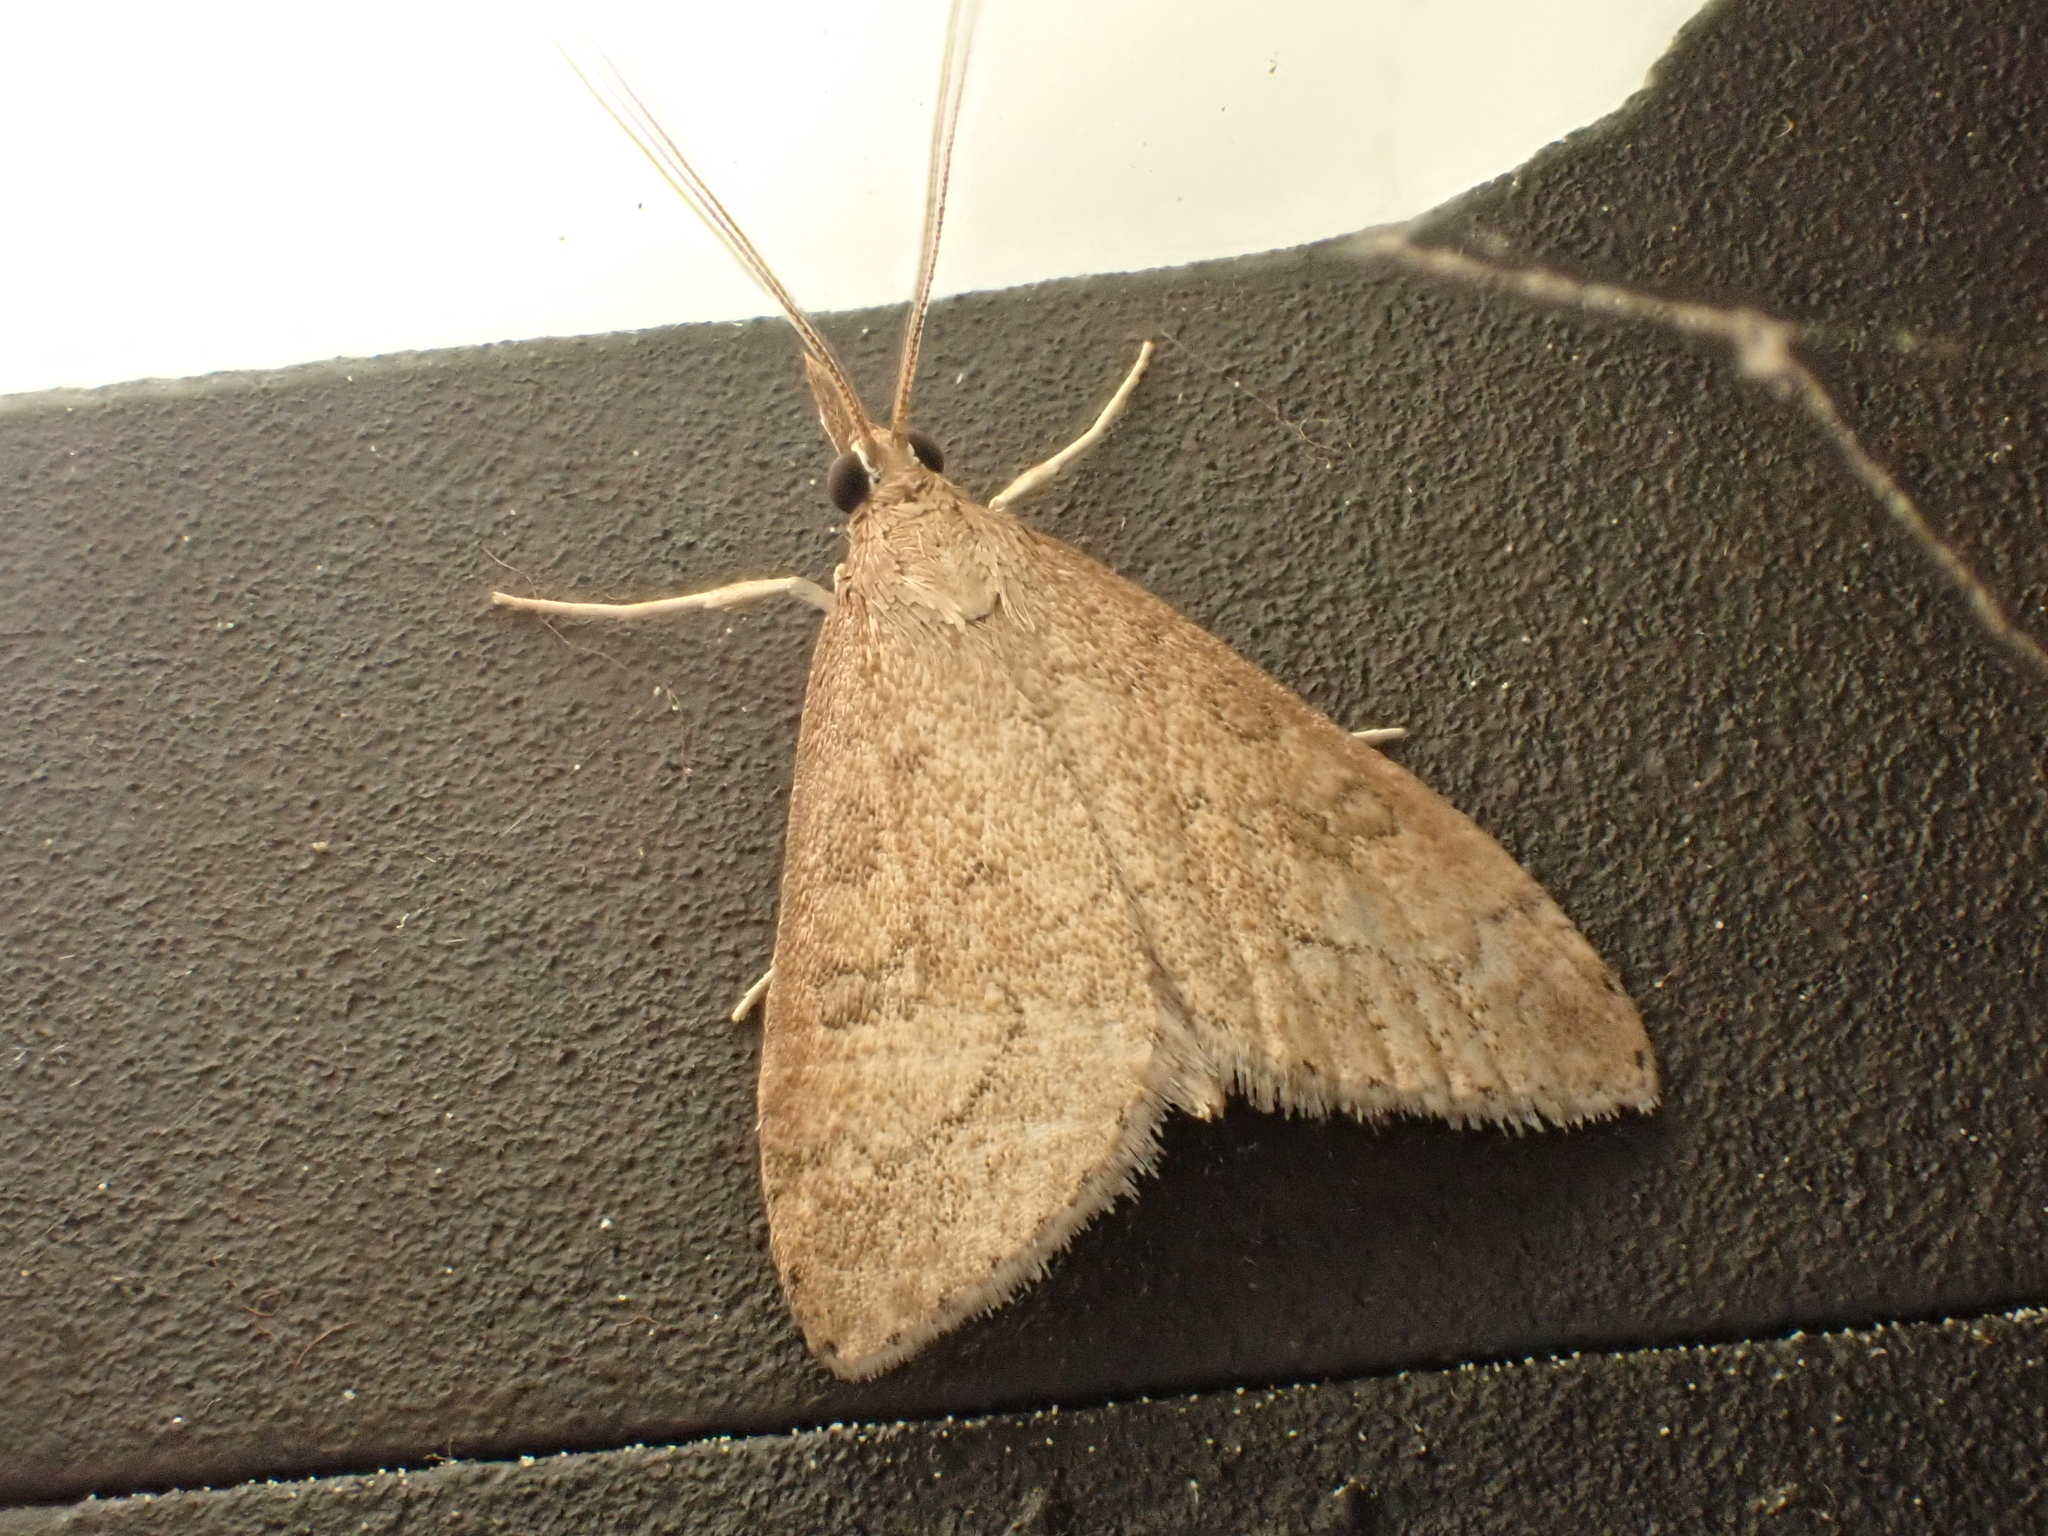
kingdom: Animalia
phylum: Arthropoda
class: Insecta
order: Lepidoptera
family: Crambidae
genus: Udea
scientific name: Udea rubigalis
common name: Celery leaftier moth
